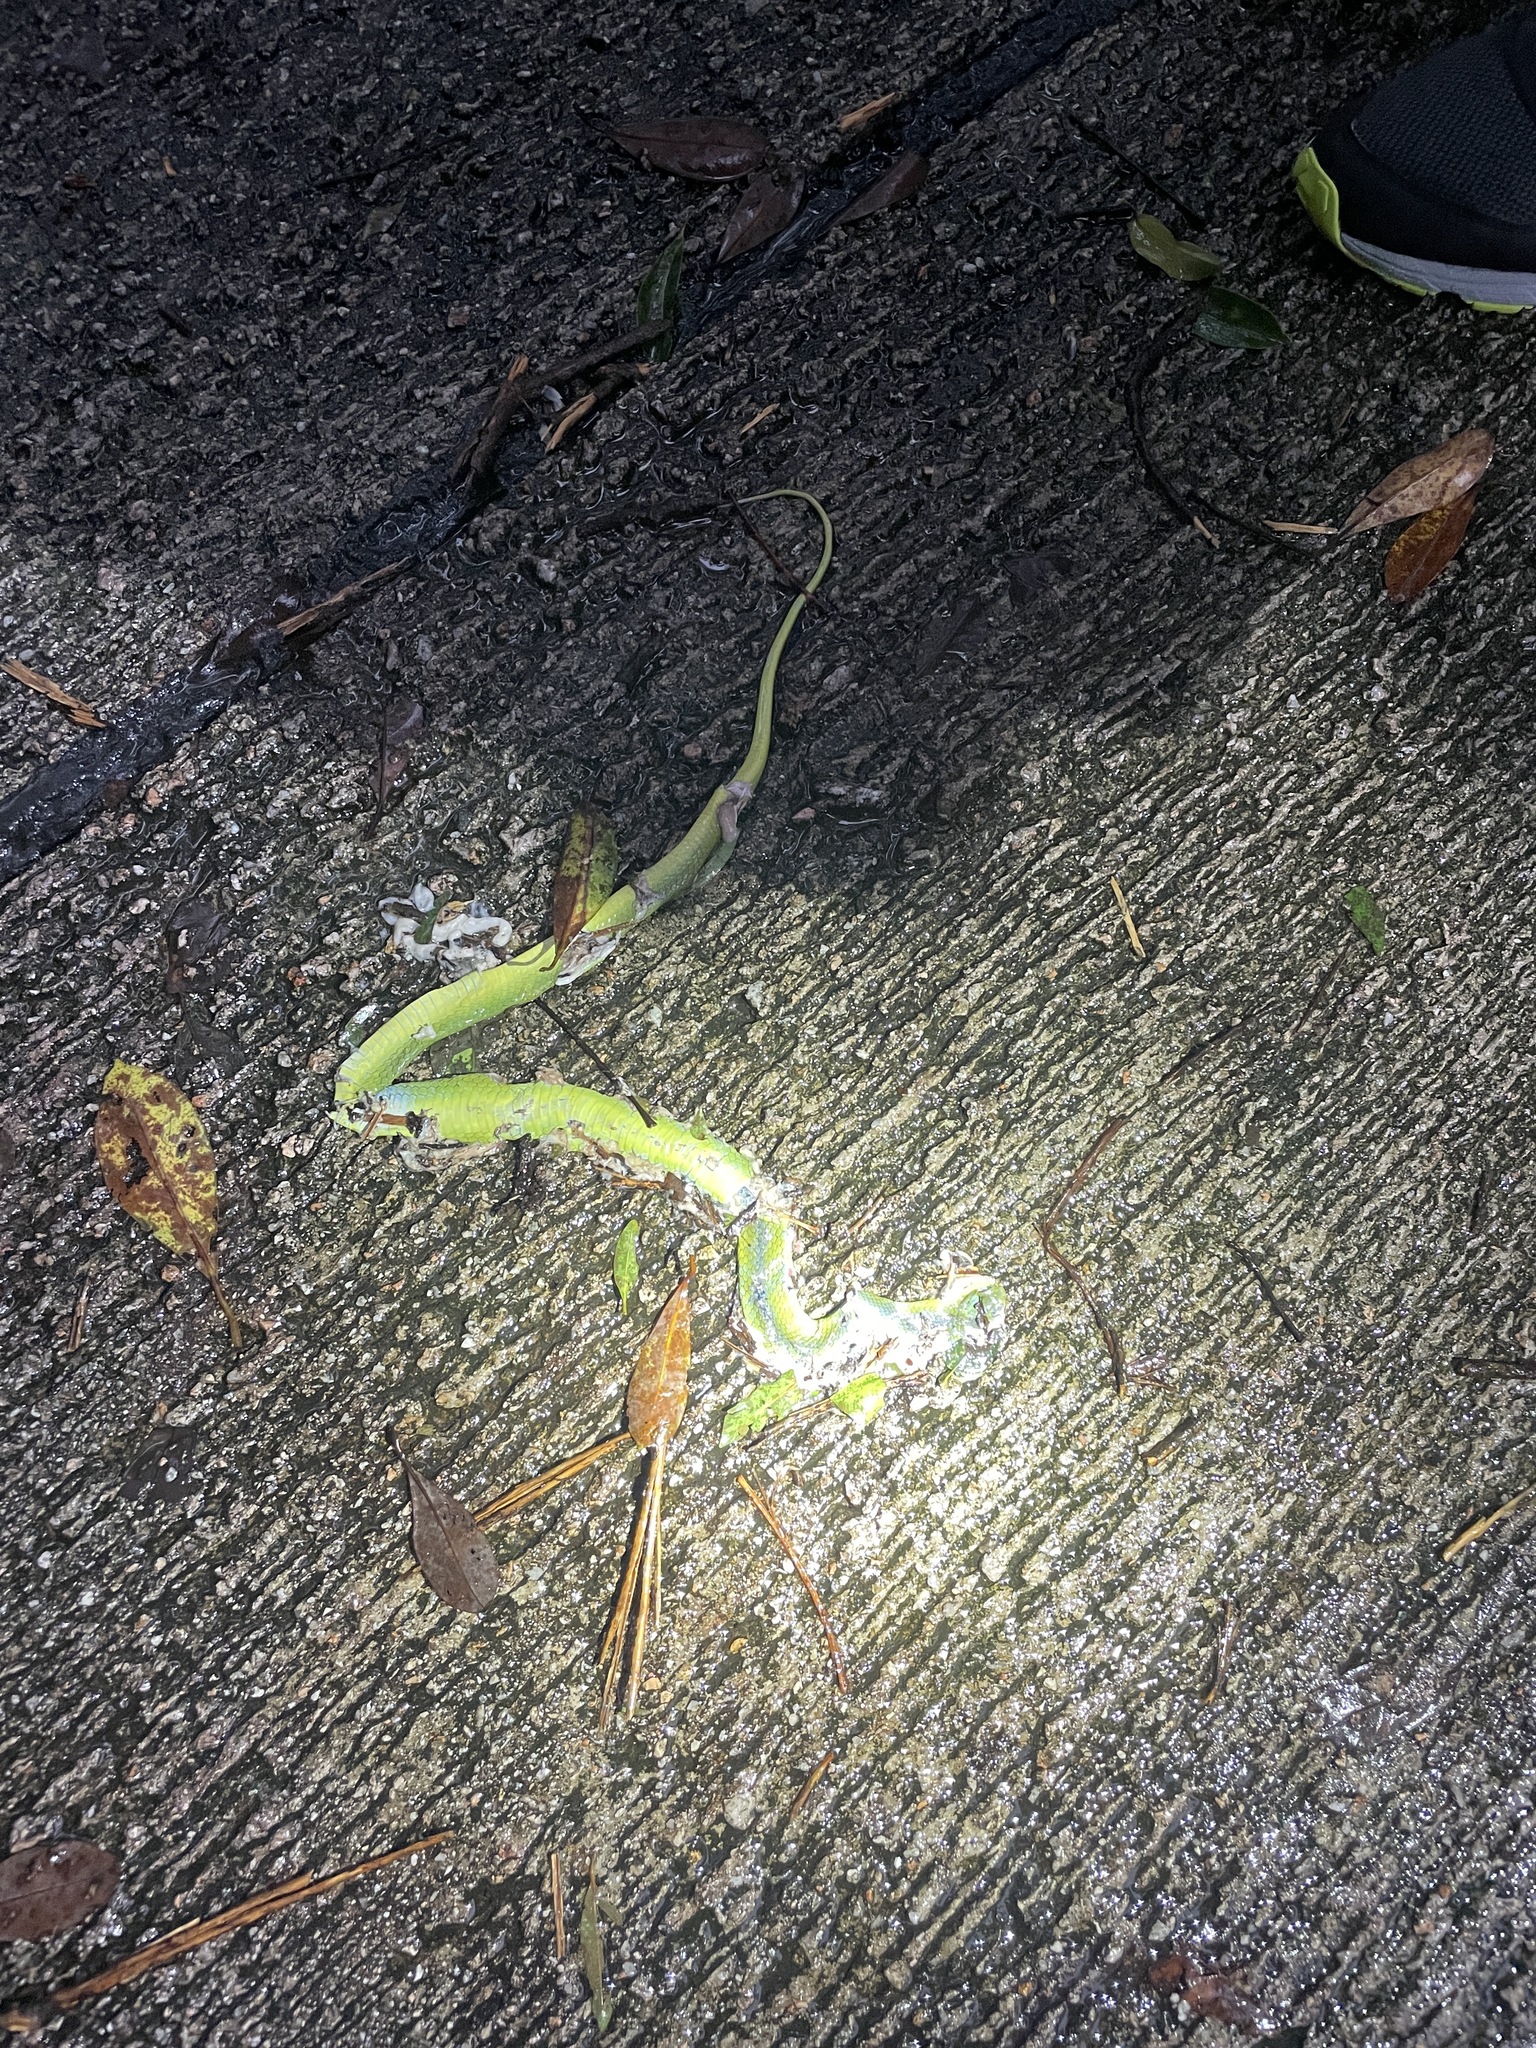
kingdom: Animalia
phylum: Chordata
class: Squamata
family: Viperidae
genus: Trimeresurus
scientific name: Trimeresurus albolabris
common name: White-lipped pitviper
